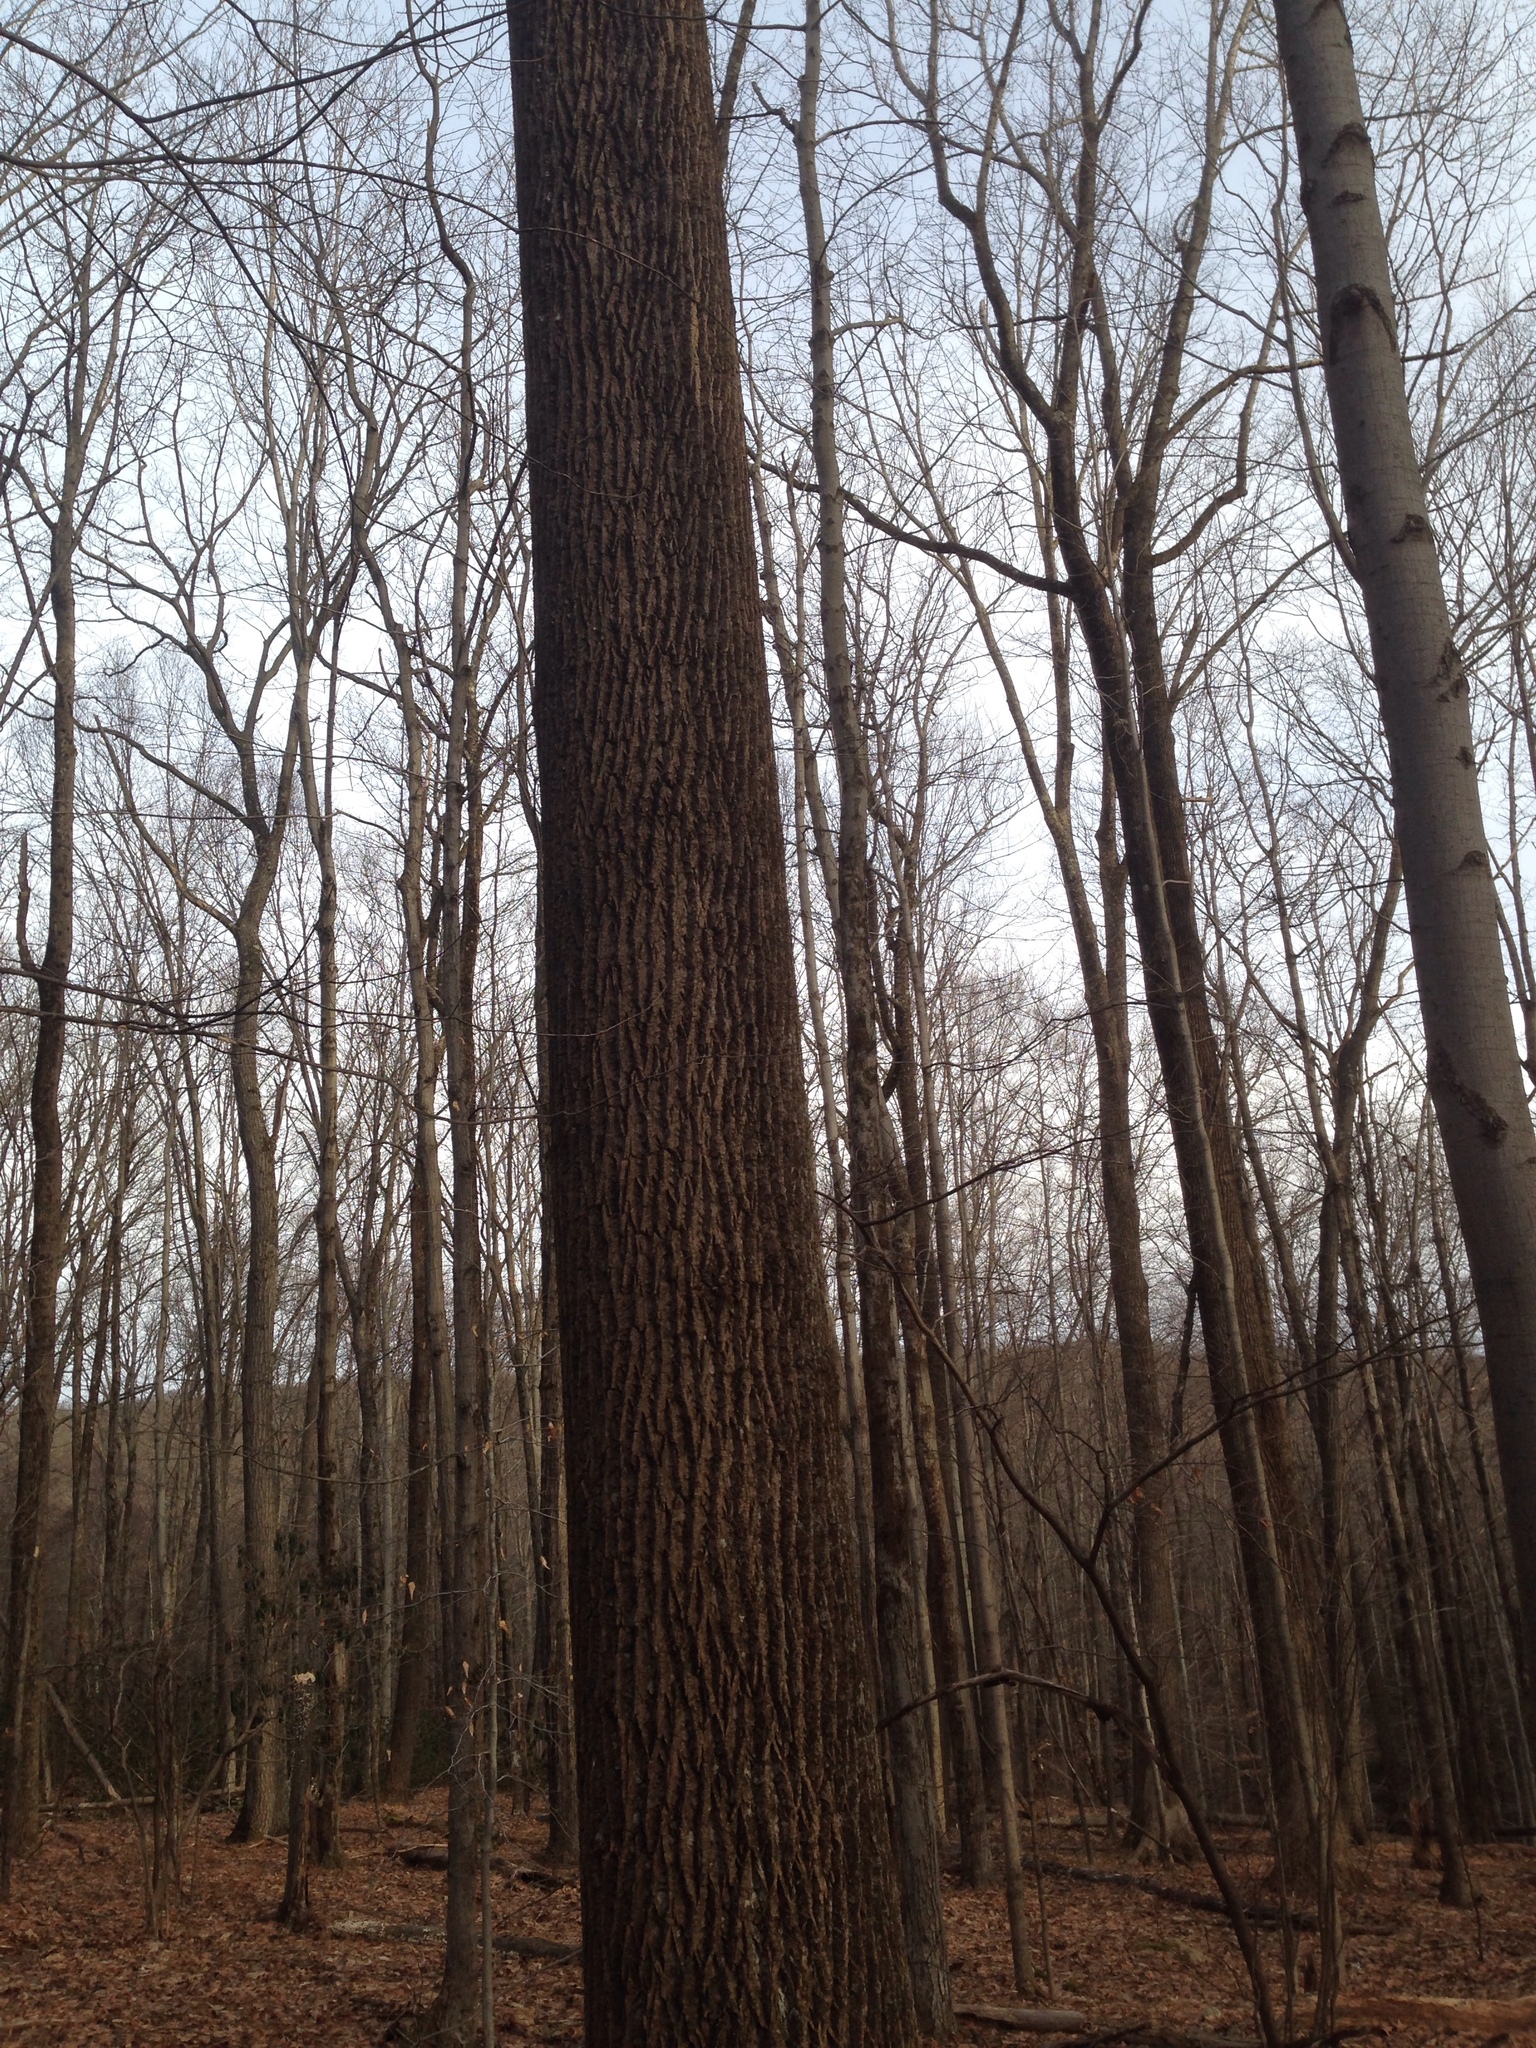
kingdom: Plantae
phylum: Tracheophyta
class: Magnoliopsida
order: Magnoliales
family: Magnoliaceae
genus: Liriodendron
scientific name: Liriodendron tulipifera
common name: Tulip tree
